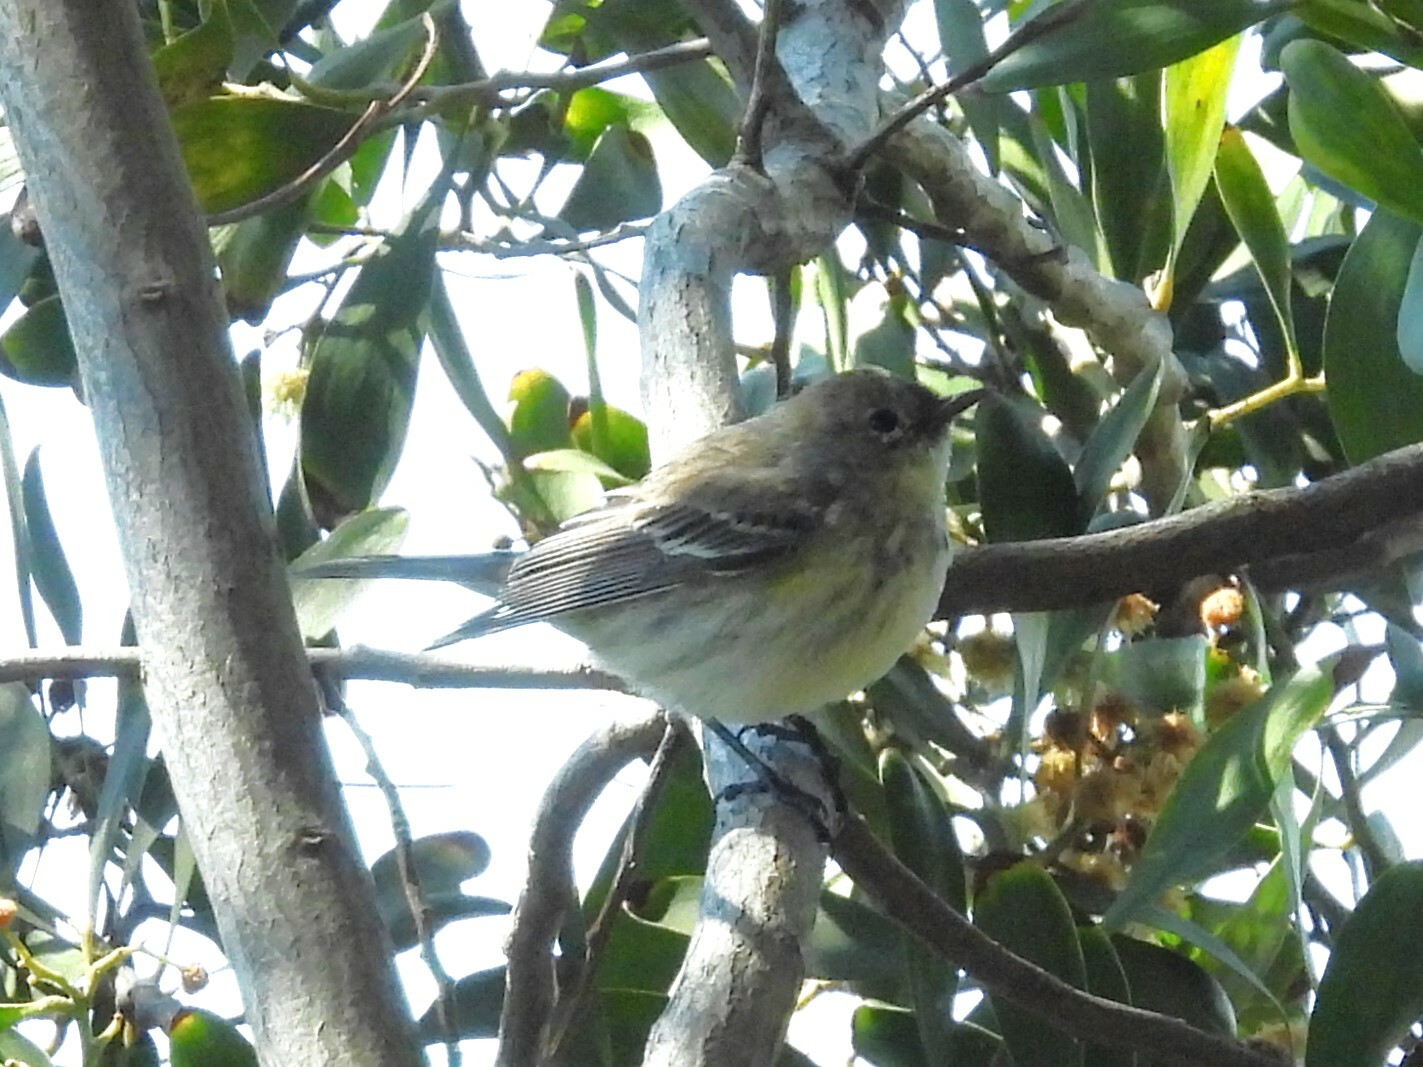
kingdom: Animalia
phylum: Chordata
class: Aves
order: Passeriformes
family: Parulidae
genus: Setophaga
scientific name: Setophaga coronata
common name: Myrtle warbler
